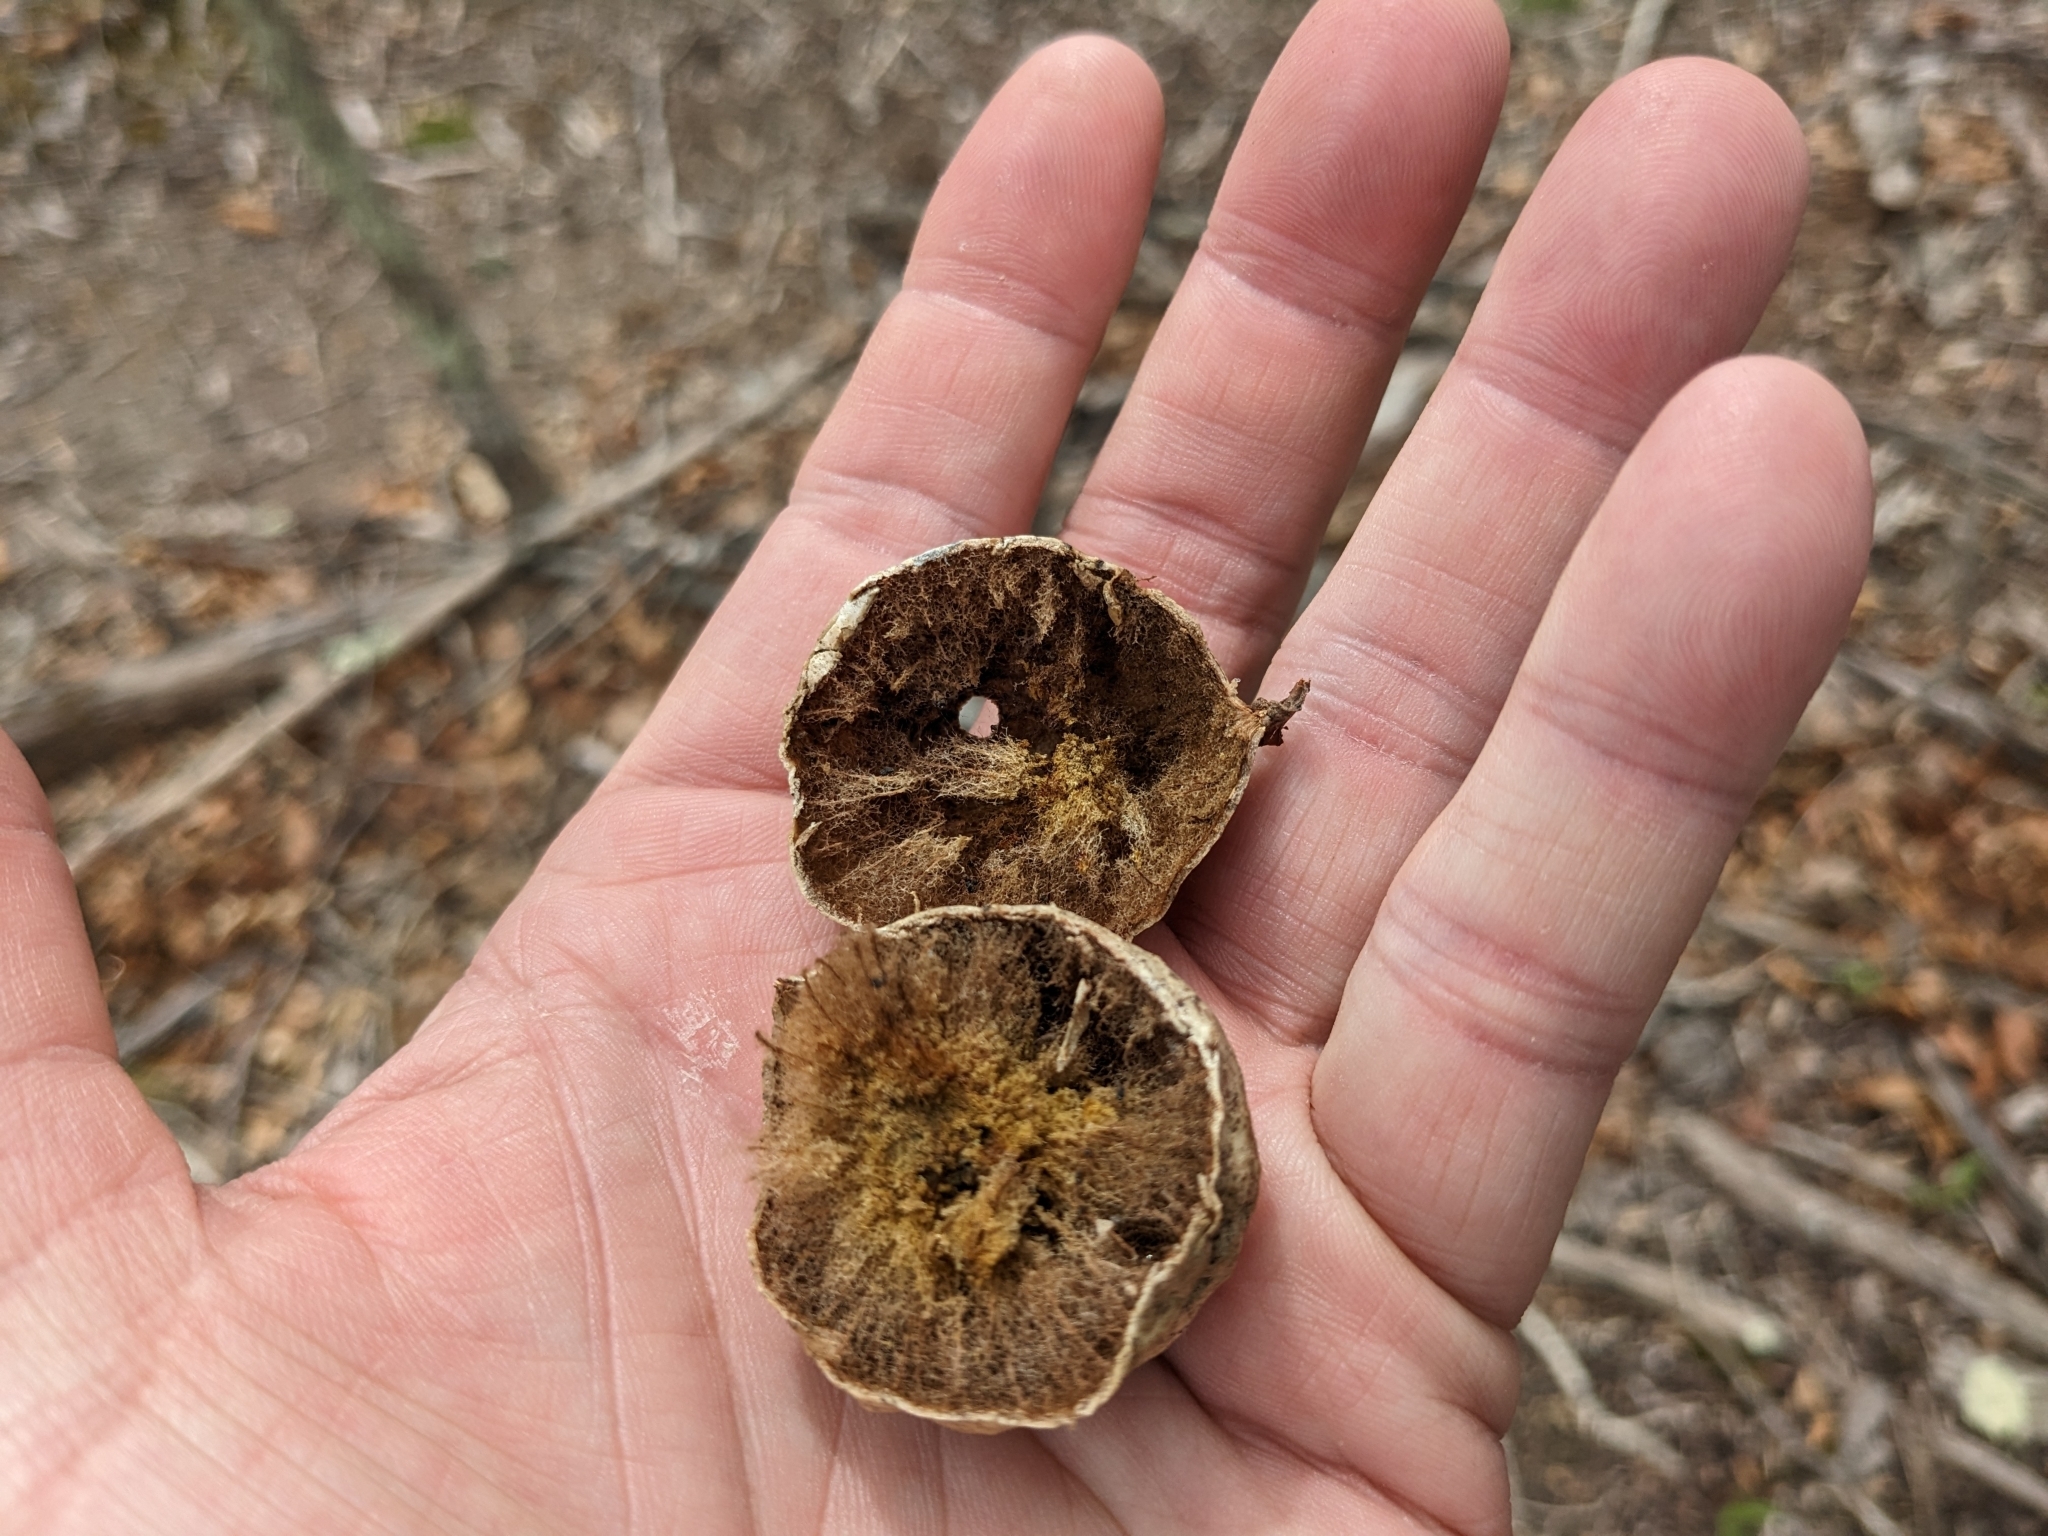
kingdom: Animalia
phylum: Arthropoda
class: Insecta
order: Hymenoptera
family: Cynipidae
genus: Amphibolips
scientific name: Amphibolips
